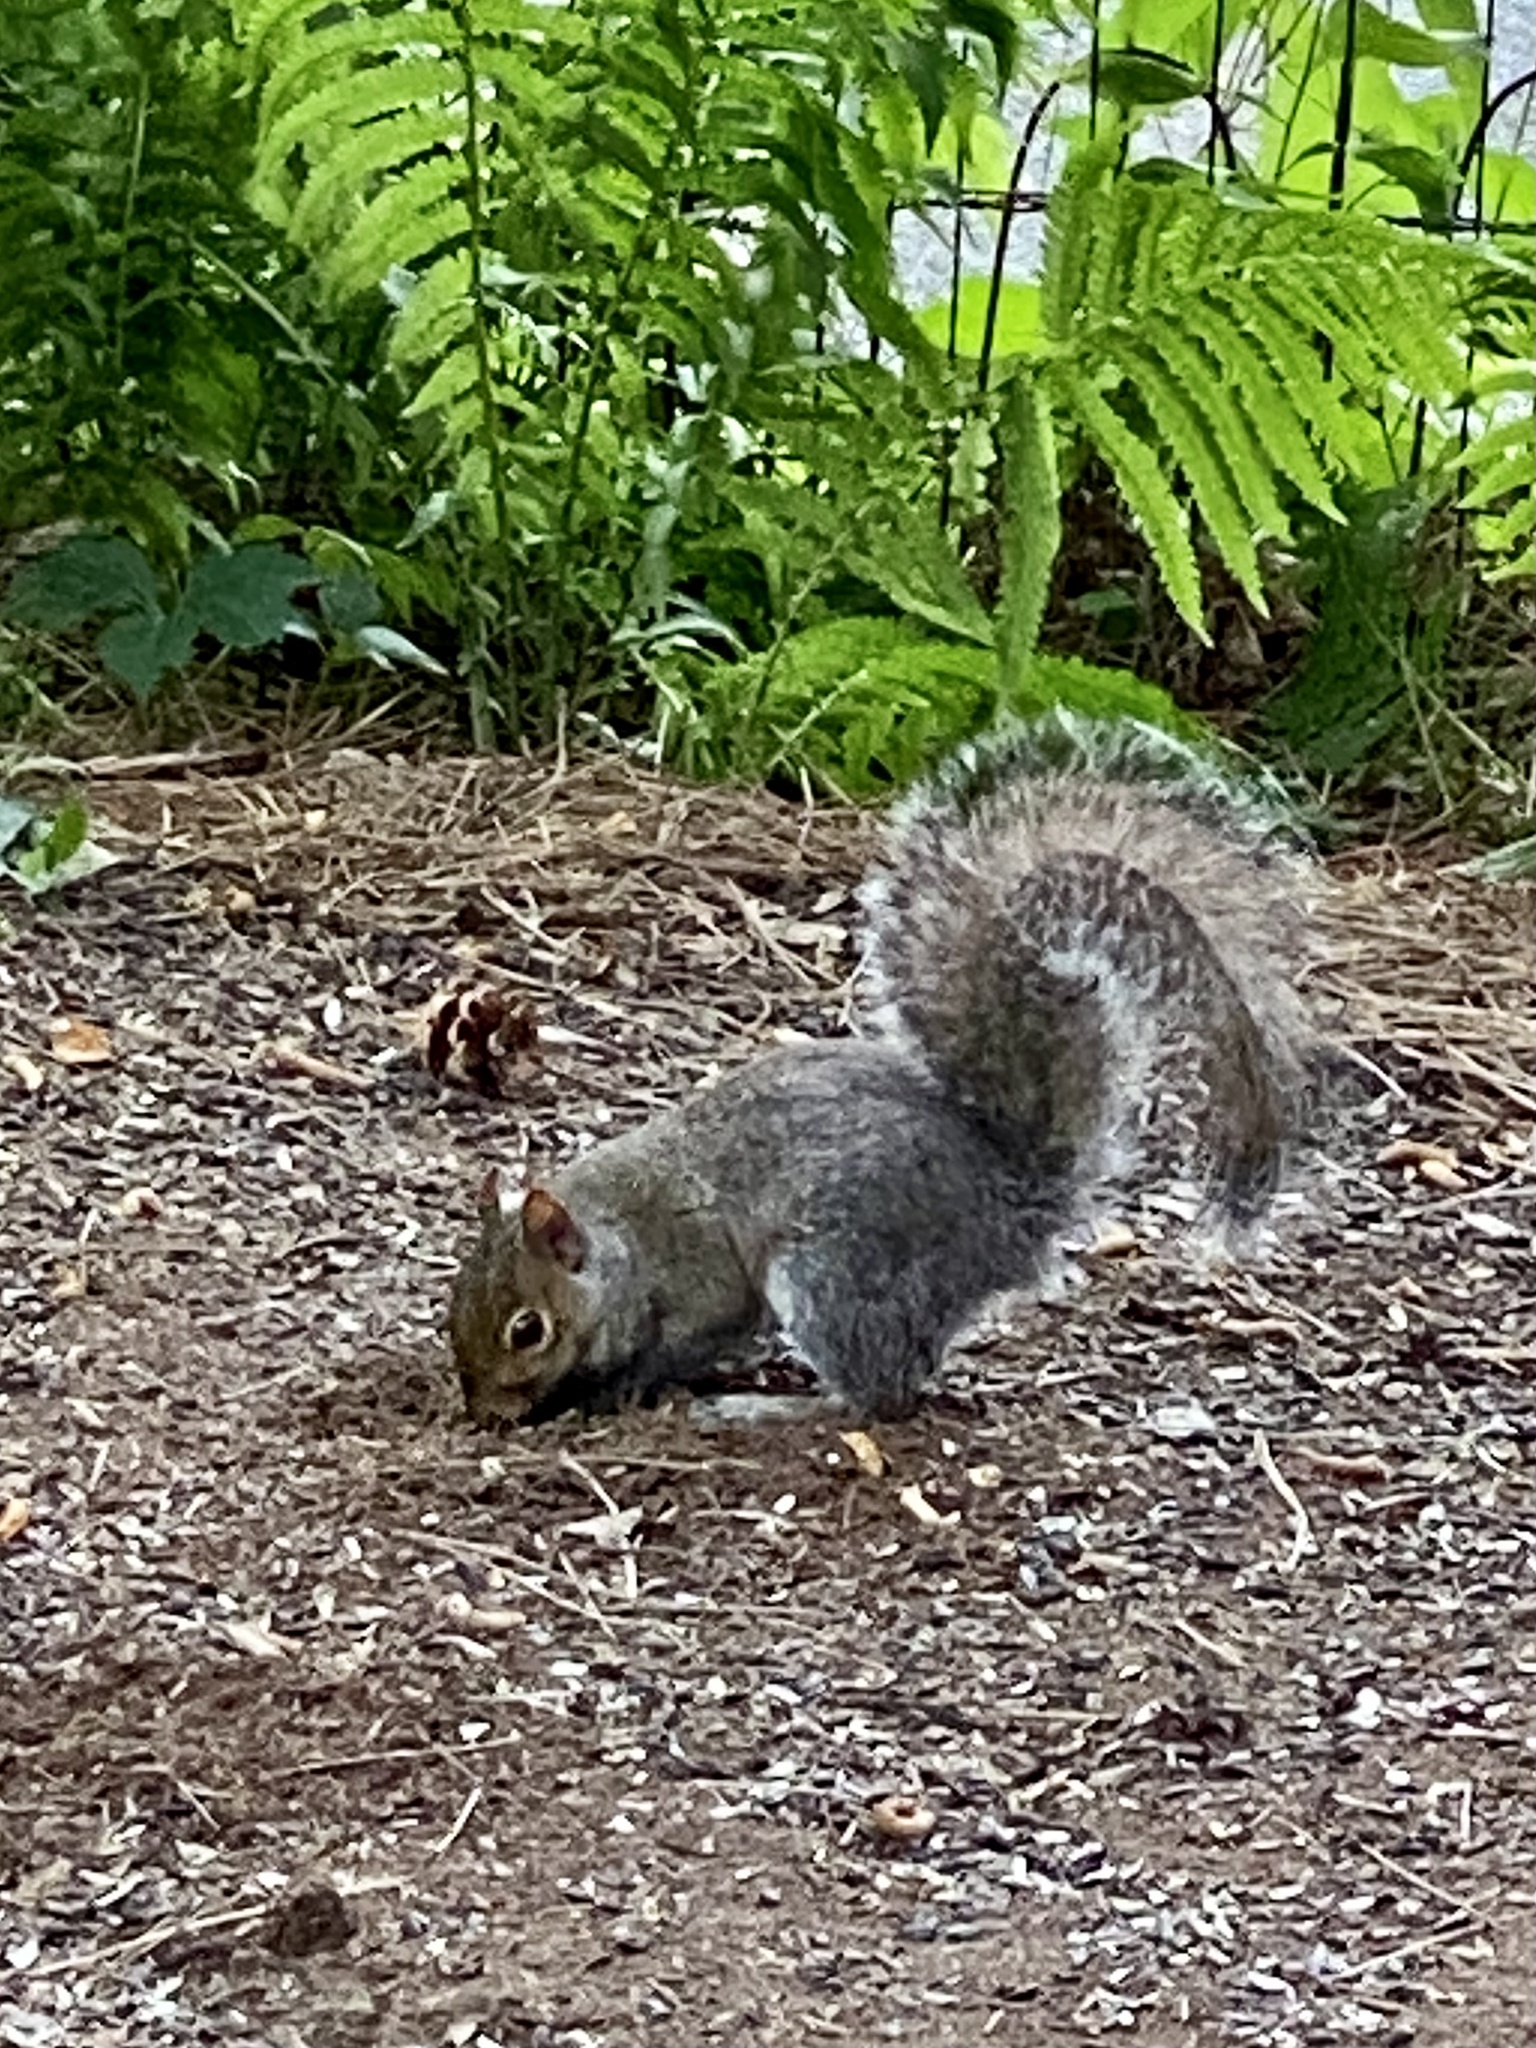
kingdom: Animalia
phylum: Chordata
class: Mammalia
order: Rodentia
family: Sciuridae
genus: Sciurus
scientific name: Sciurus carolinensis
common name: Eastern gray squirrel
